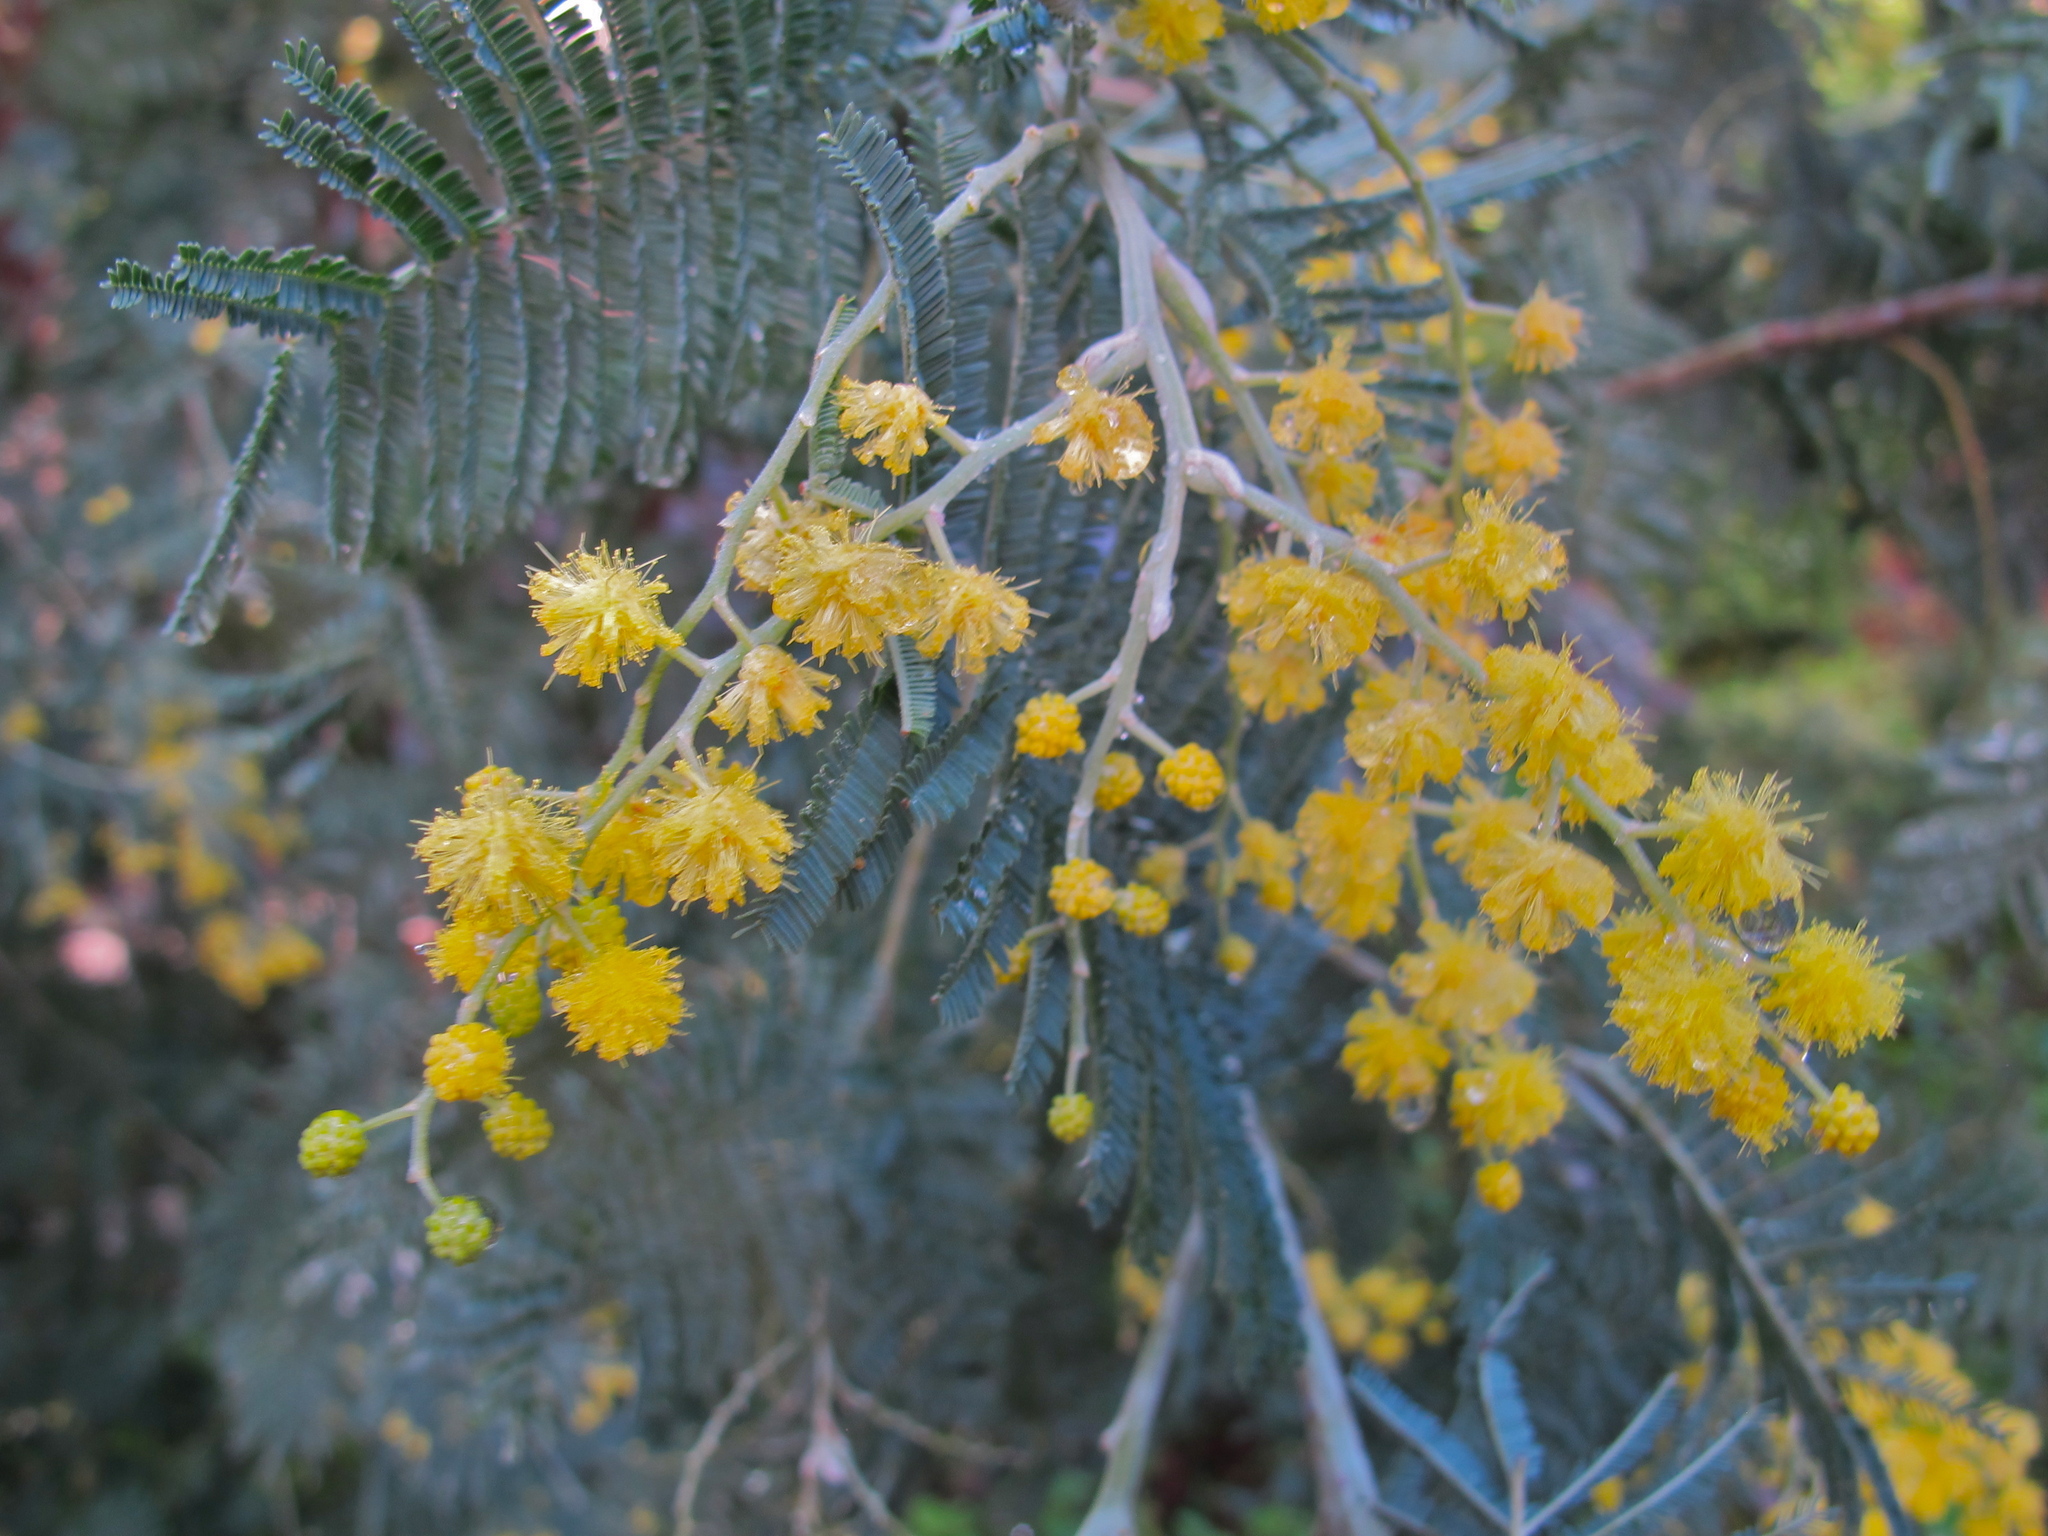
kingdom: Plantae
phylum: Tracheophyta
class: Magnoliopsida
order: Fabales
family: Fabaceae
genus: Acacia
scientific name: Acacia dealbata
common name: Silver wattle
